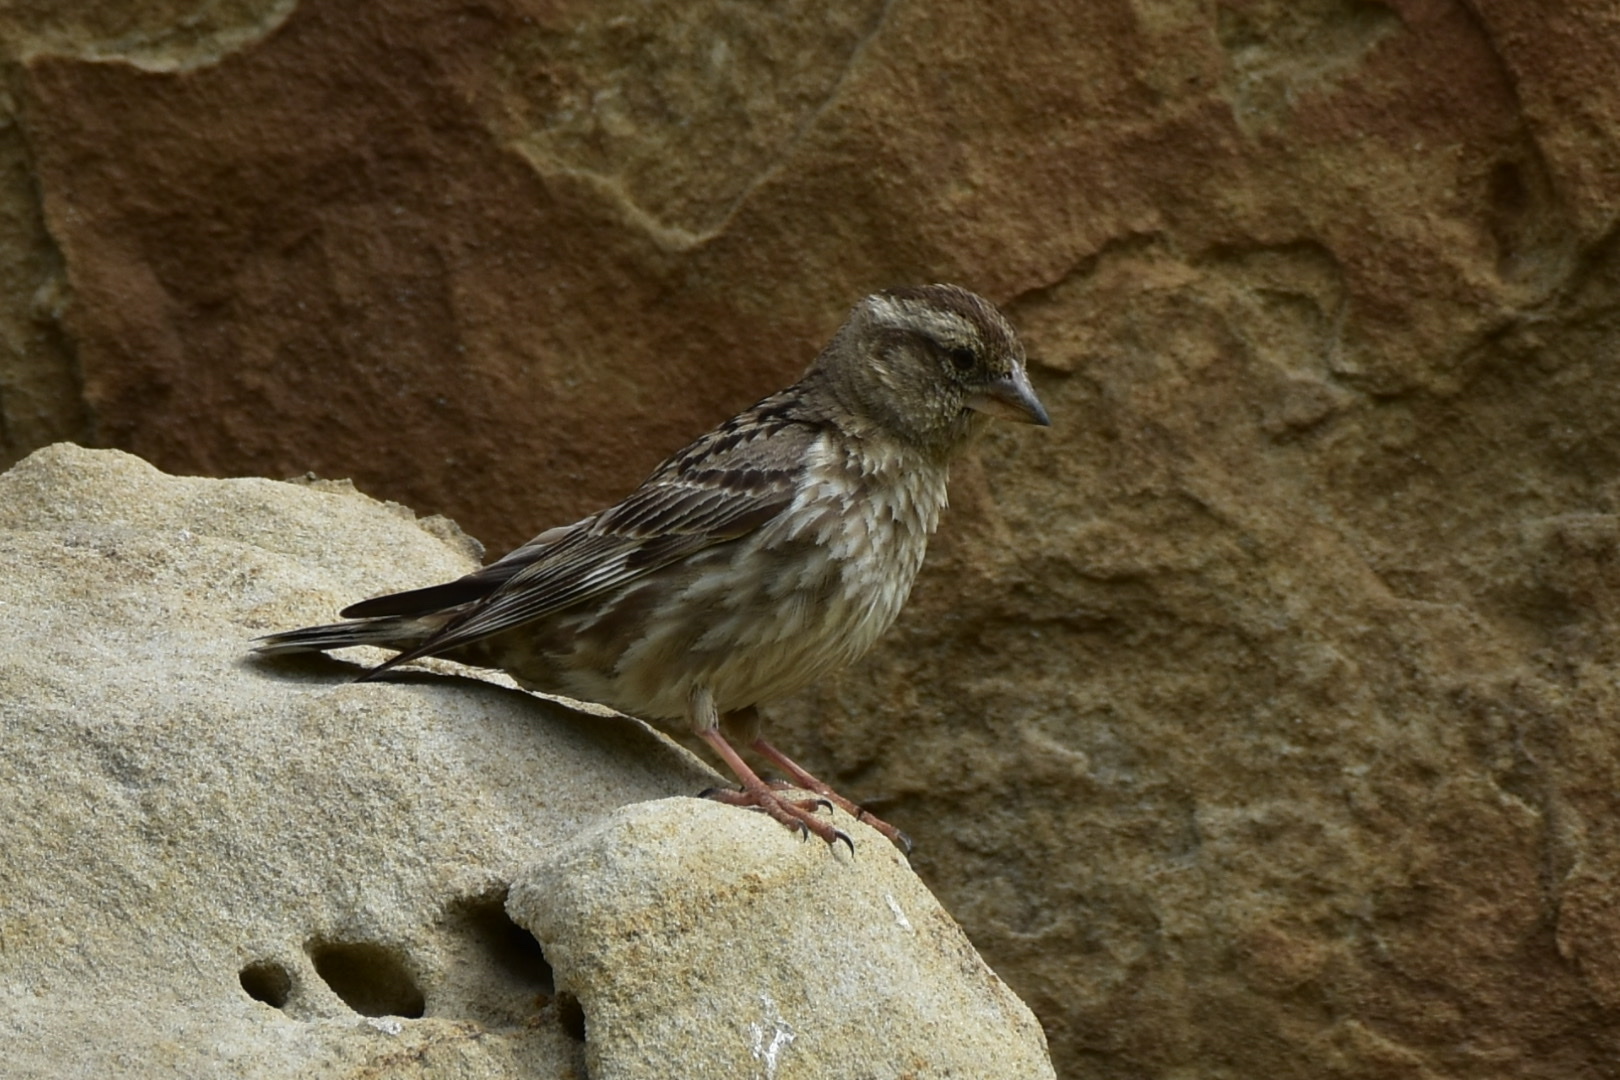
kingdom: Animalia
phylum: Chordata
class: Aves
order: Passeriformes
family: Passeridae
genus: Petronia
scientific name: Petronia petronia
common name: Rock sparrow
